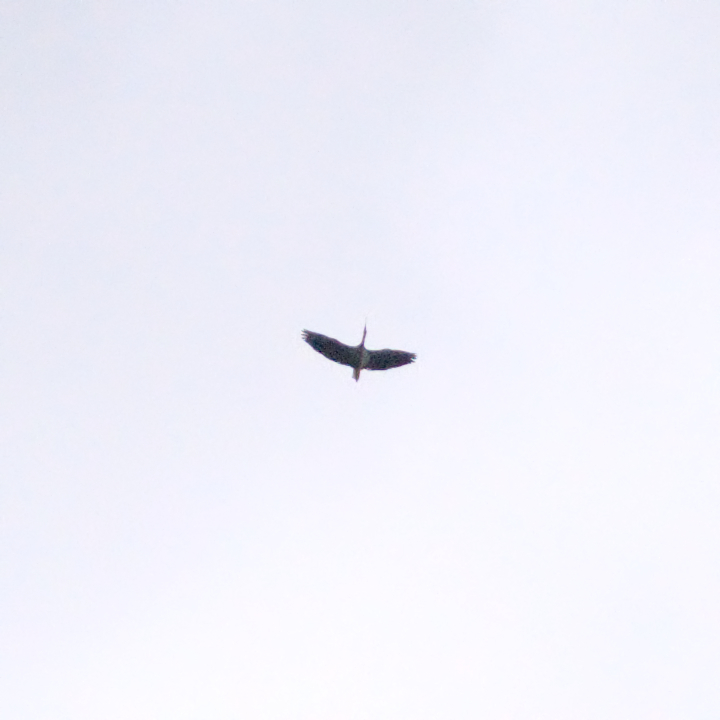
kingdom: Animalia
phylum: Chordata
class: Aves
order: Pelecaniformes
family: Threskiornithidae
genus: Threskiornis
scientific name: Threskiornis spinicollis
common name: Straw-necked ibis
